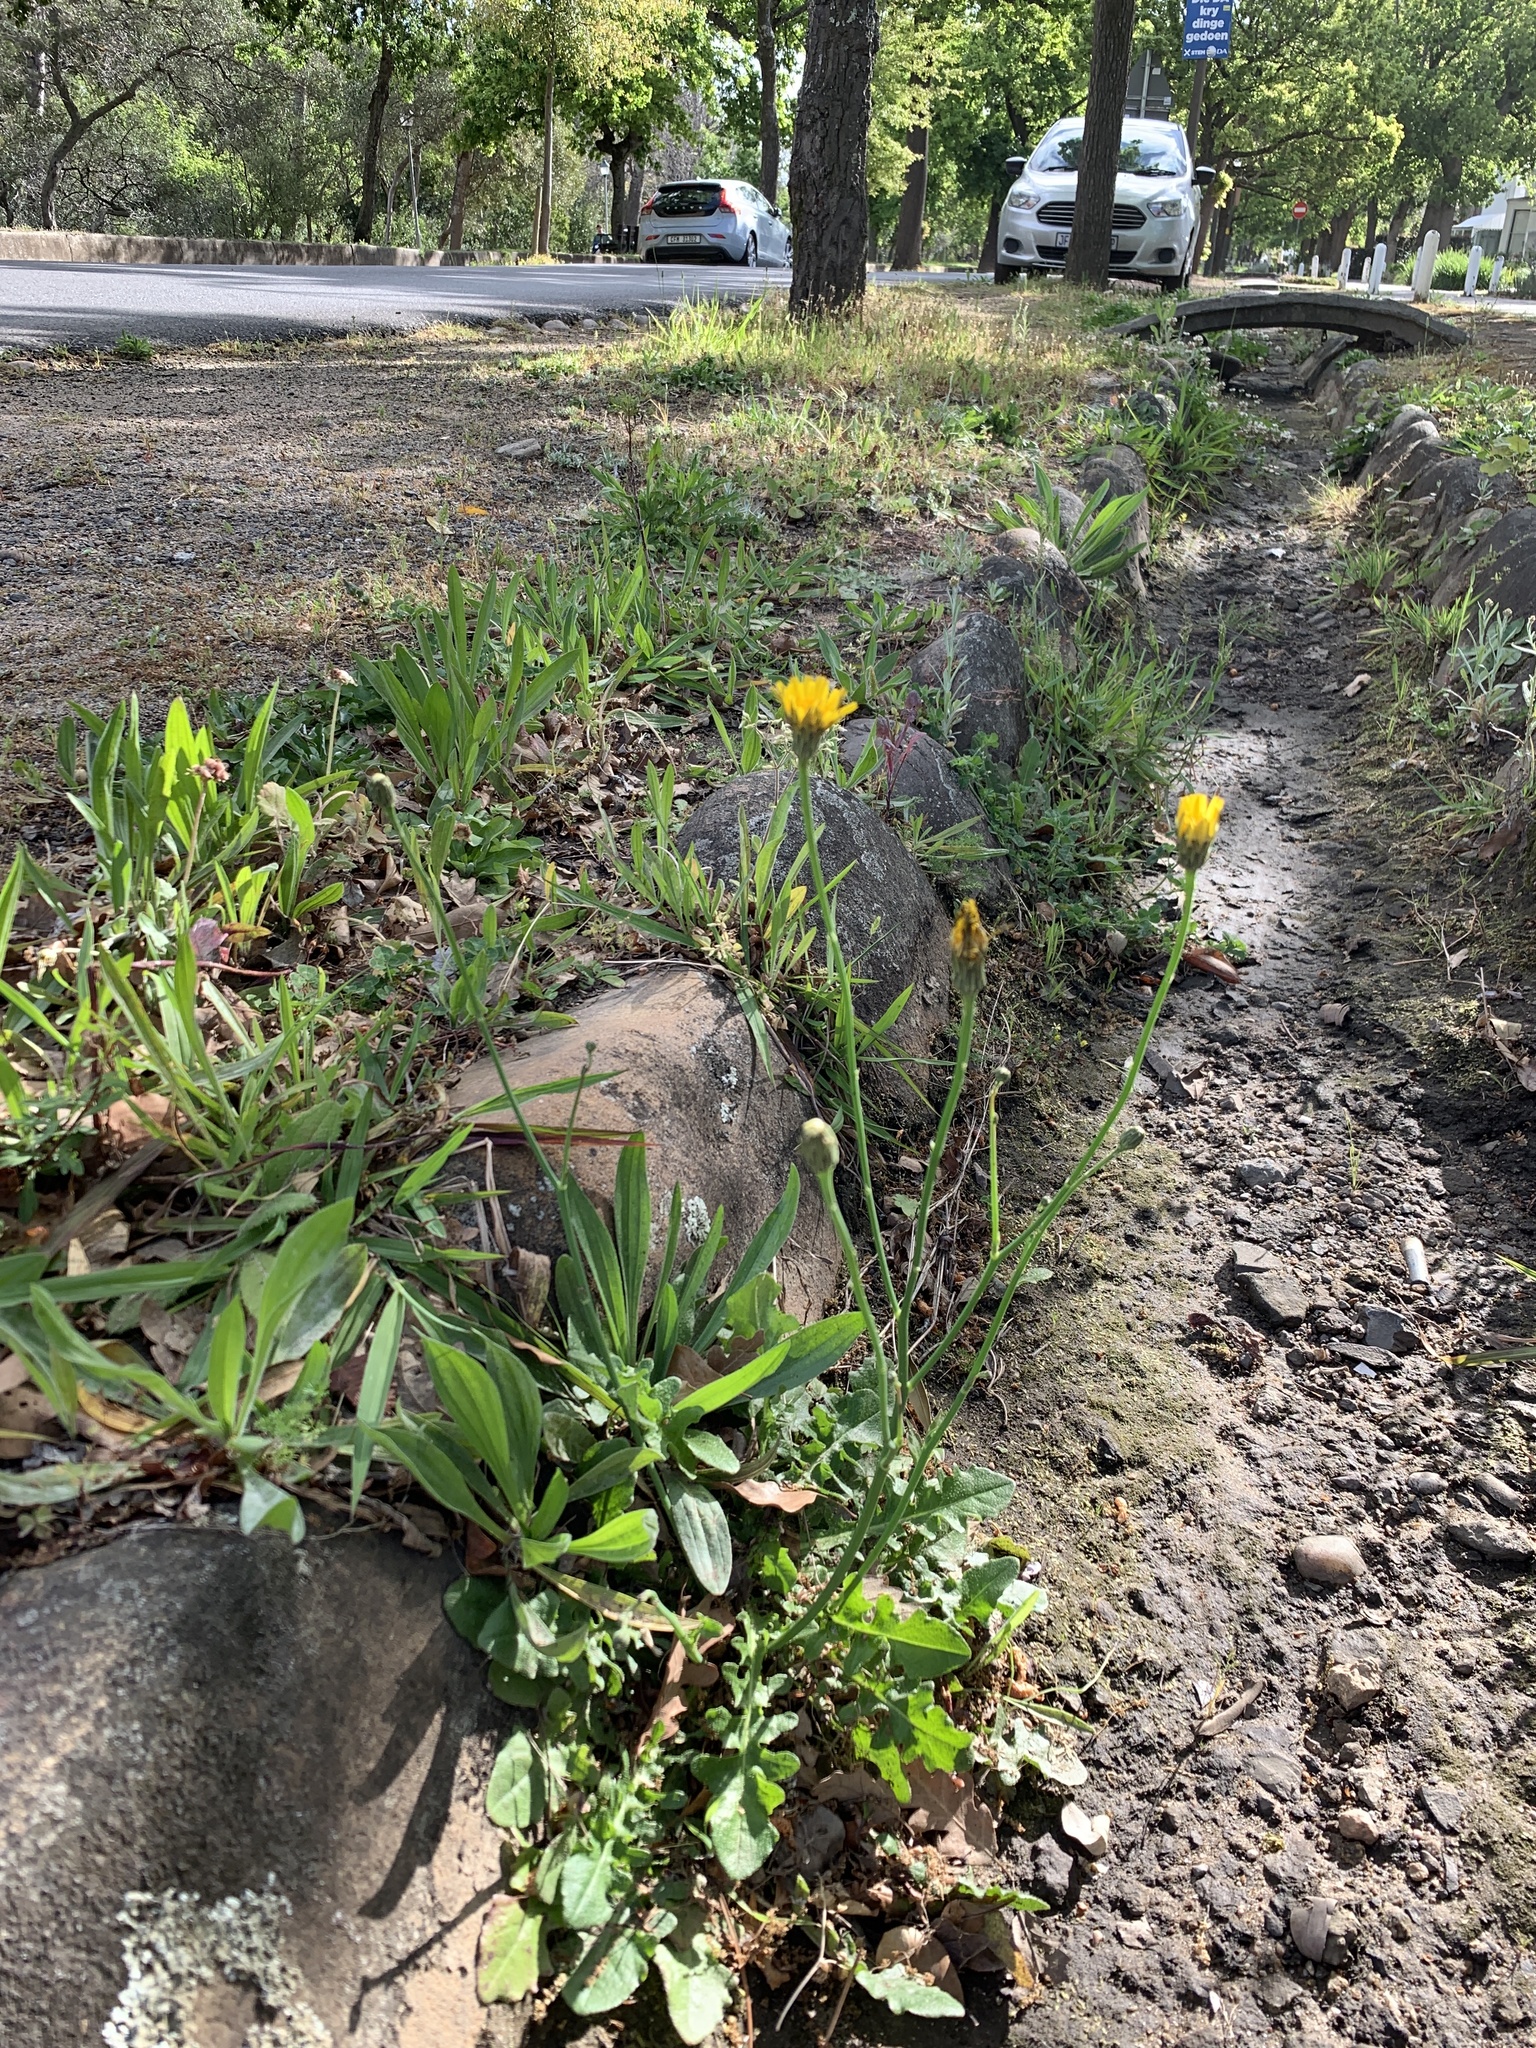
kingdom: Plantae
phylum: Tracheophyta
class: Magnoliopsida
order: Asterales
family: Asteraceae
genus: Hypochaeris
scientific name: Hypochaeris radicata
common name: Flatweed
